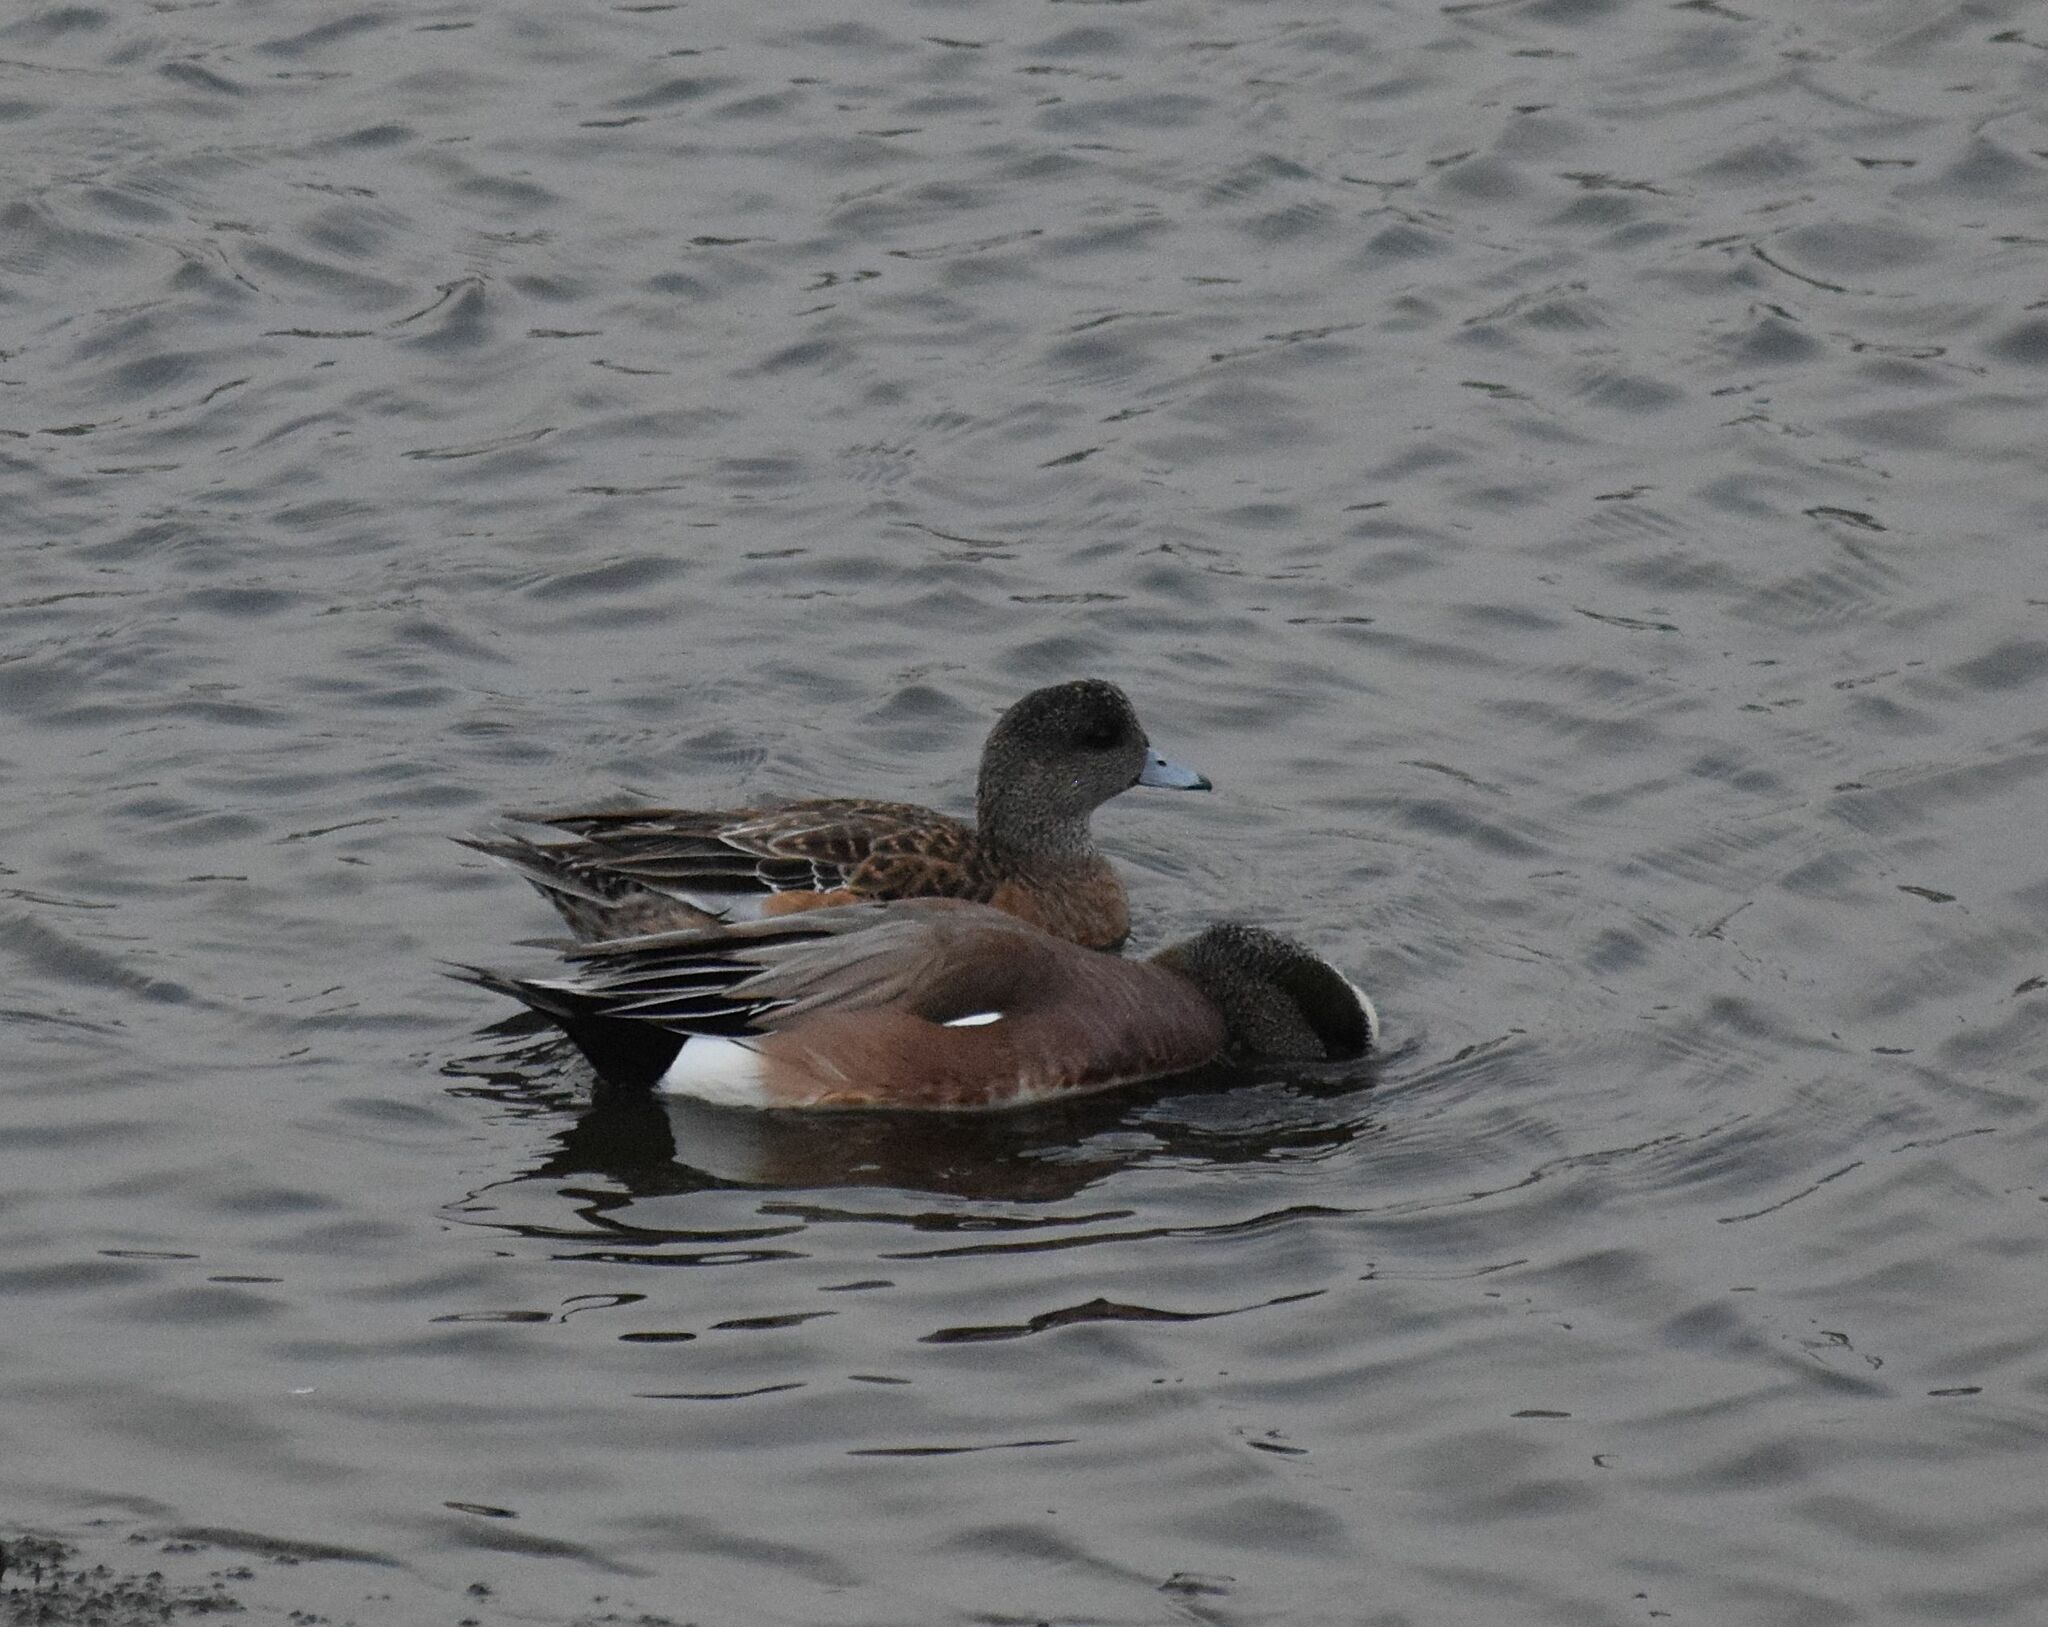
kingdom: Animalia
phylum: Chordata
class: Aves
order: Anseriformes
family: Anatidae
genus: Mareca
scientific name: Mareca americana
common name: American wigeon
